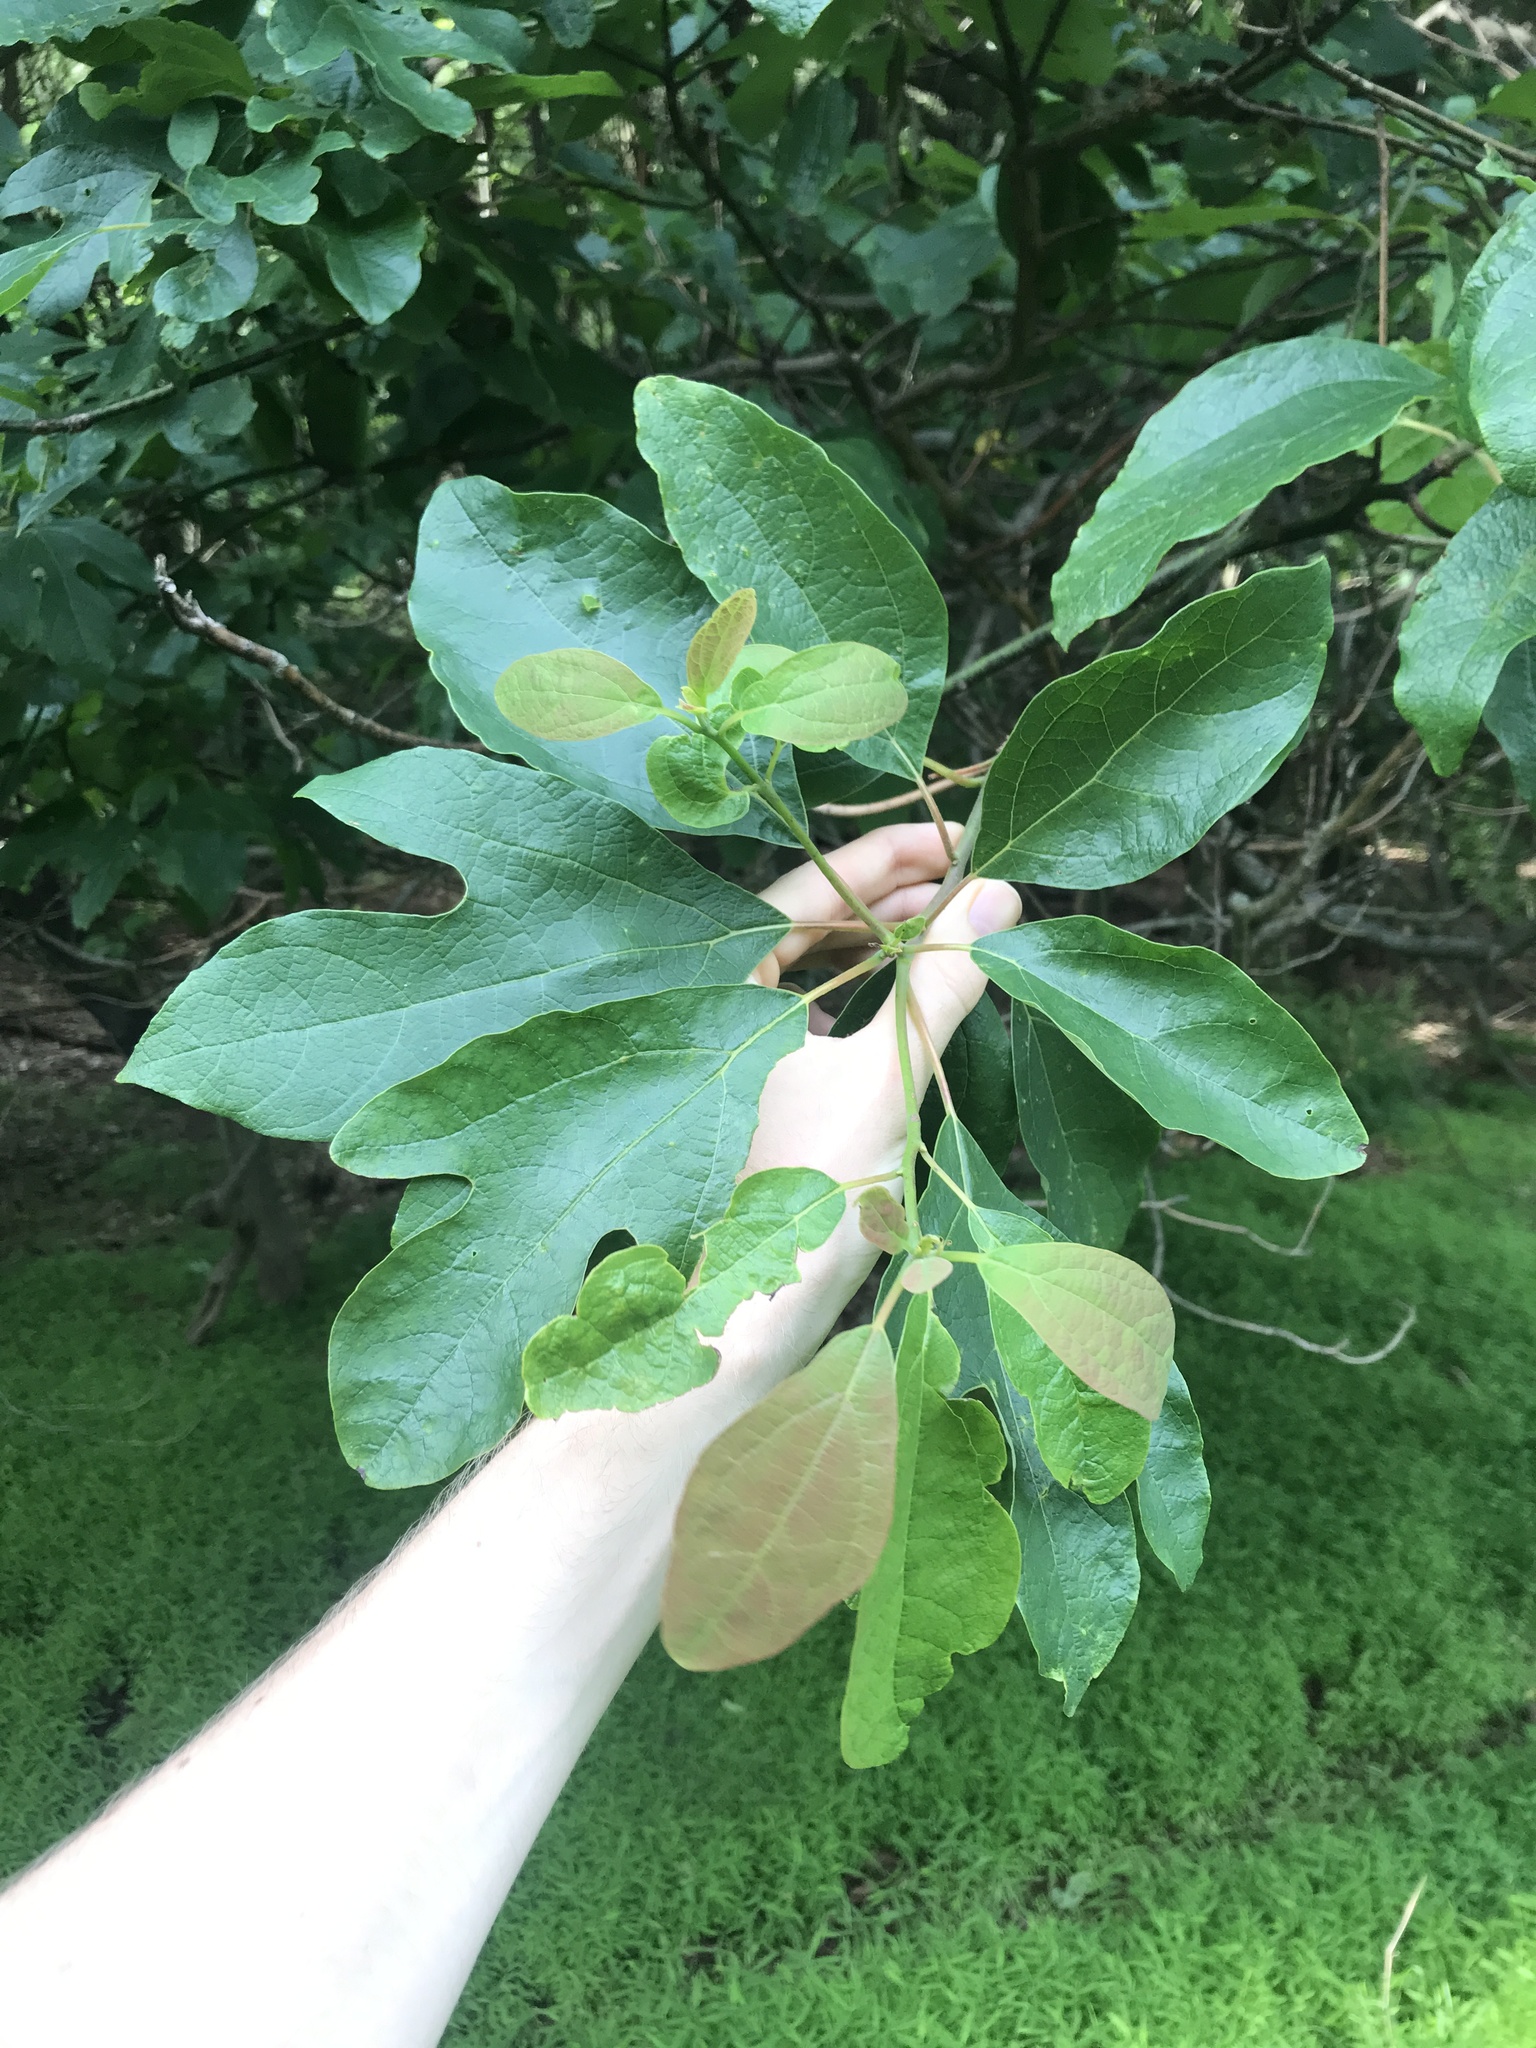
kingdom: Plantae
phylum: Tracheophyta
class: Magnoliopsida
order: Laurales
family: Lauraceae
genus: Sassafras
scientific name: Sassafras albidum
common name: Sassafras
